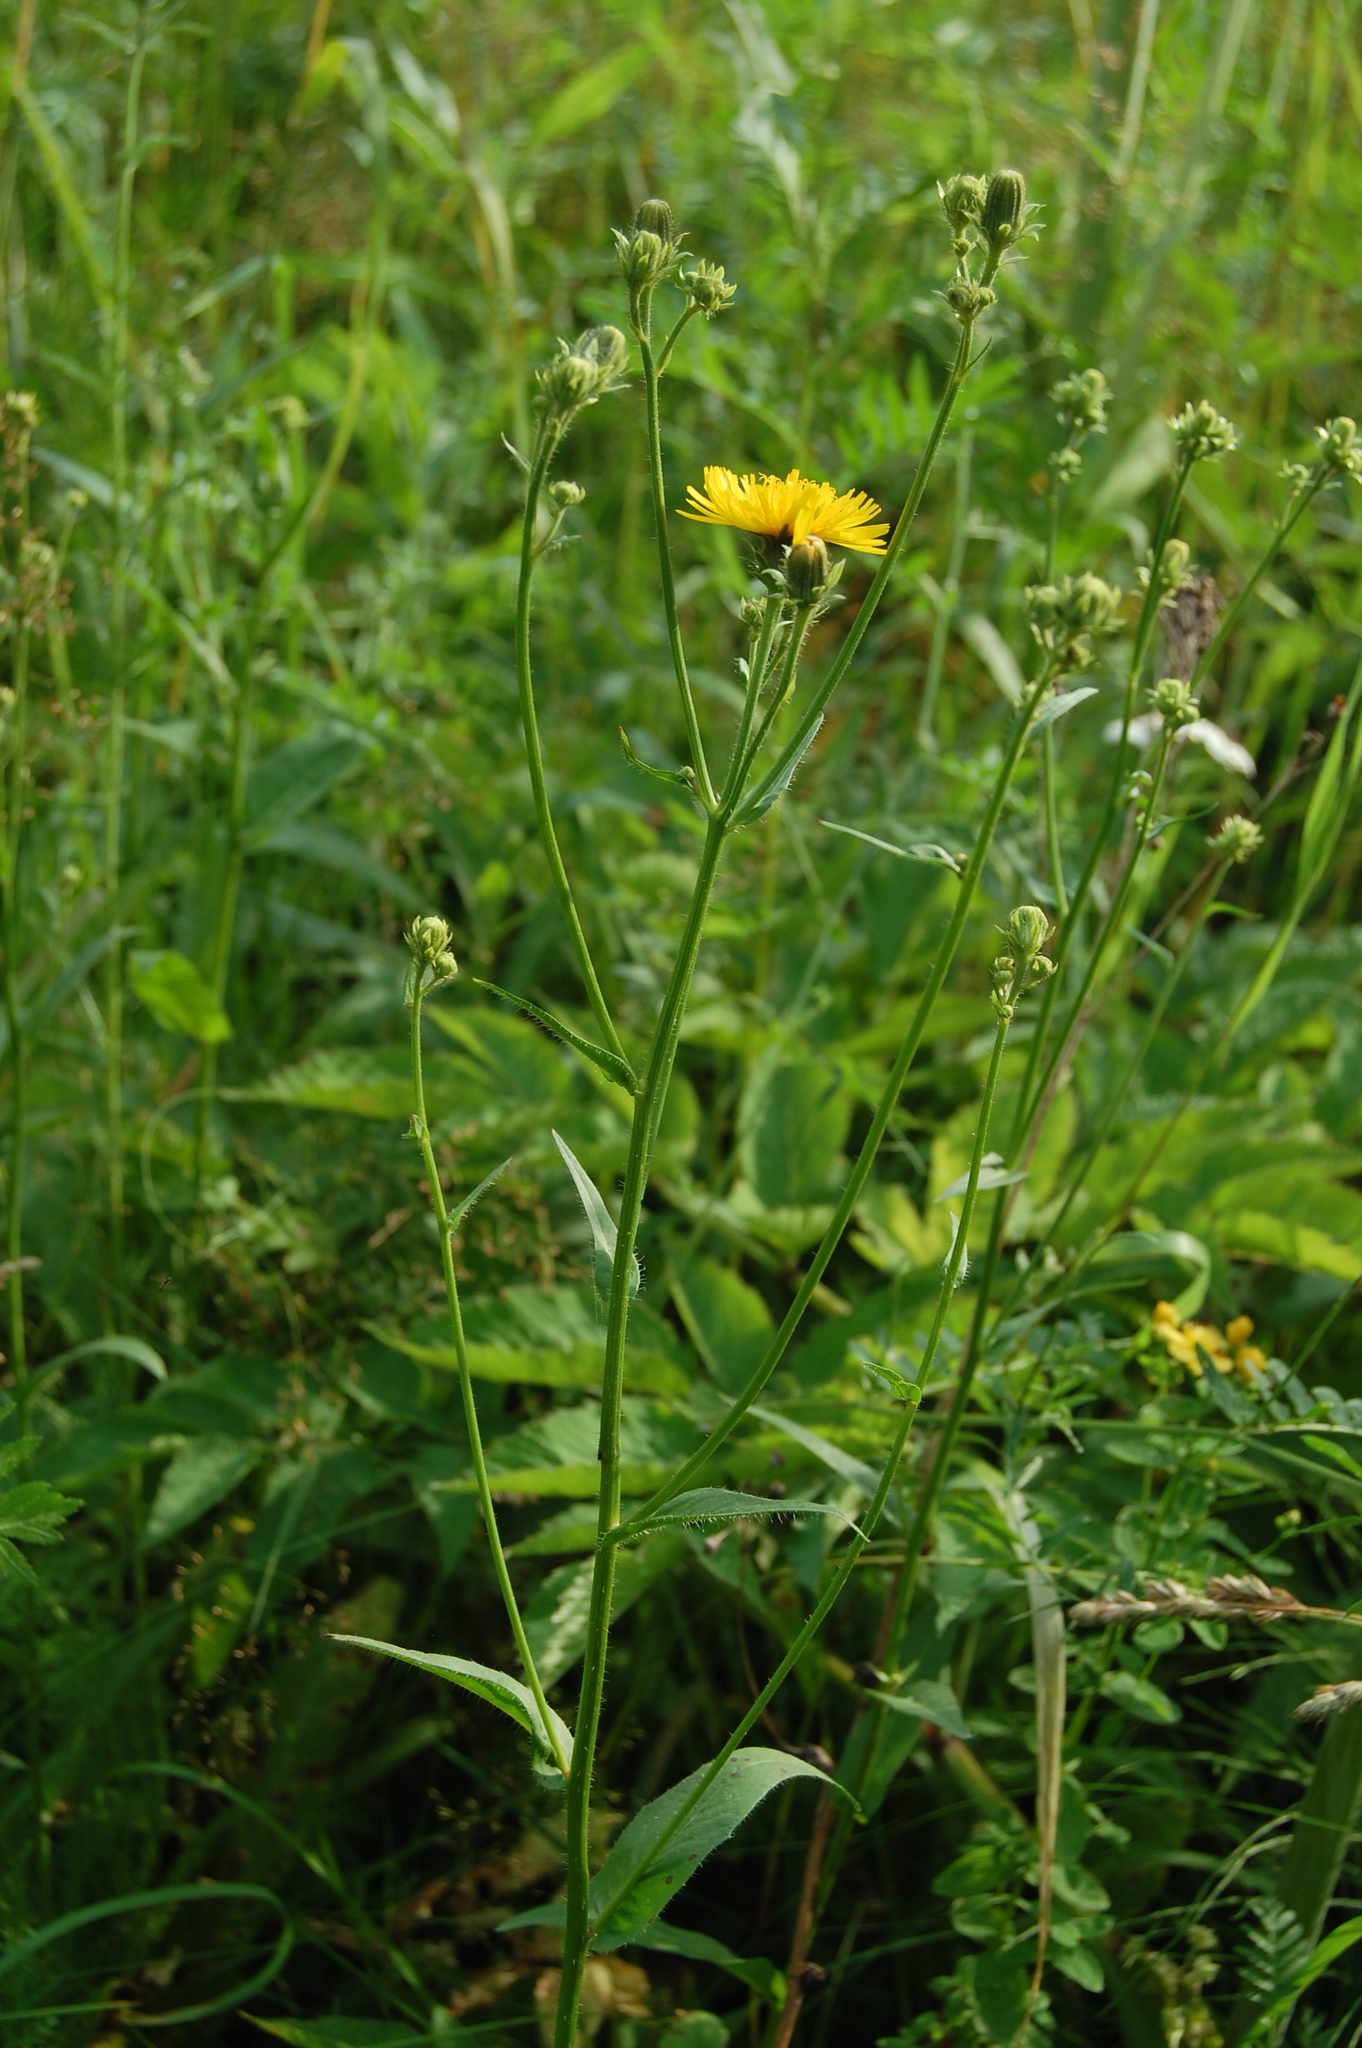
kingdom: Plantae
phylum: Tracheophyta
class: Magnoliopsida
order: Asterales
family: Asteraceae
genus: Picris
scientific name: Picris hieracioides
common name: Hawkweed oxtongue
